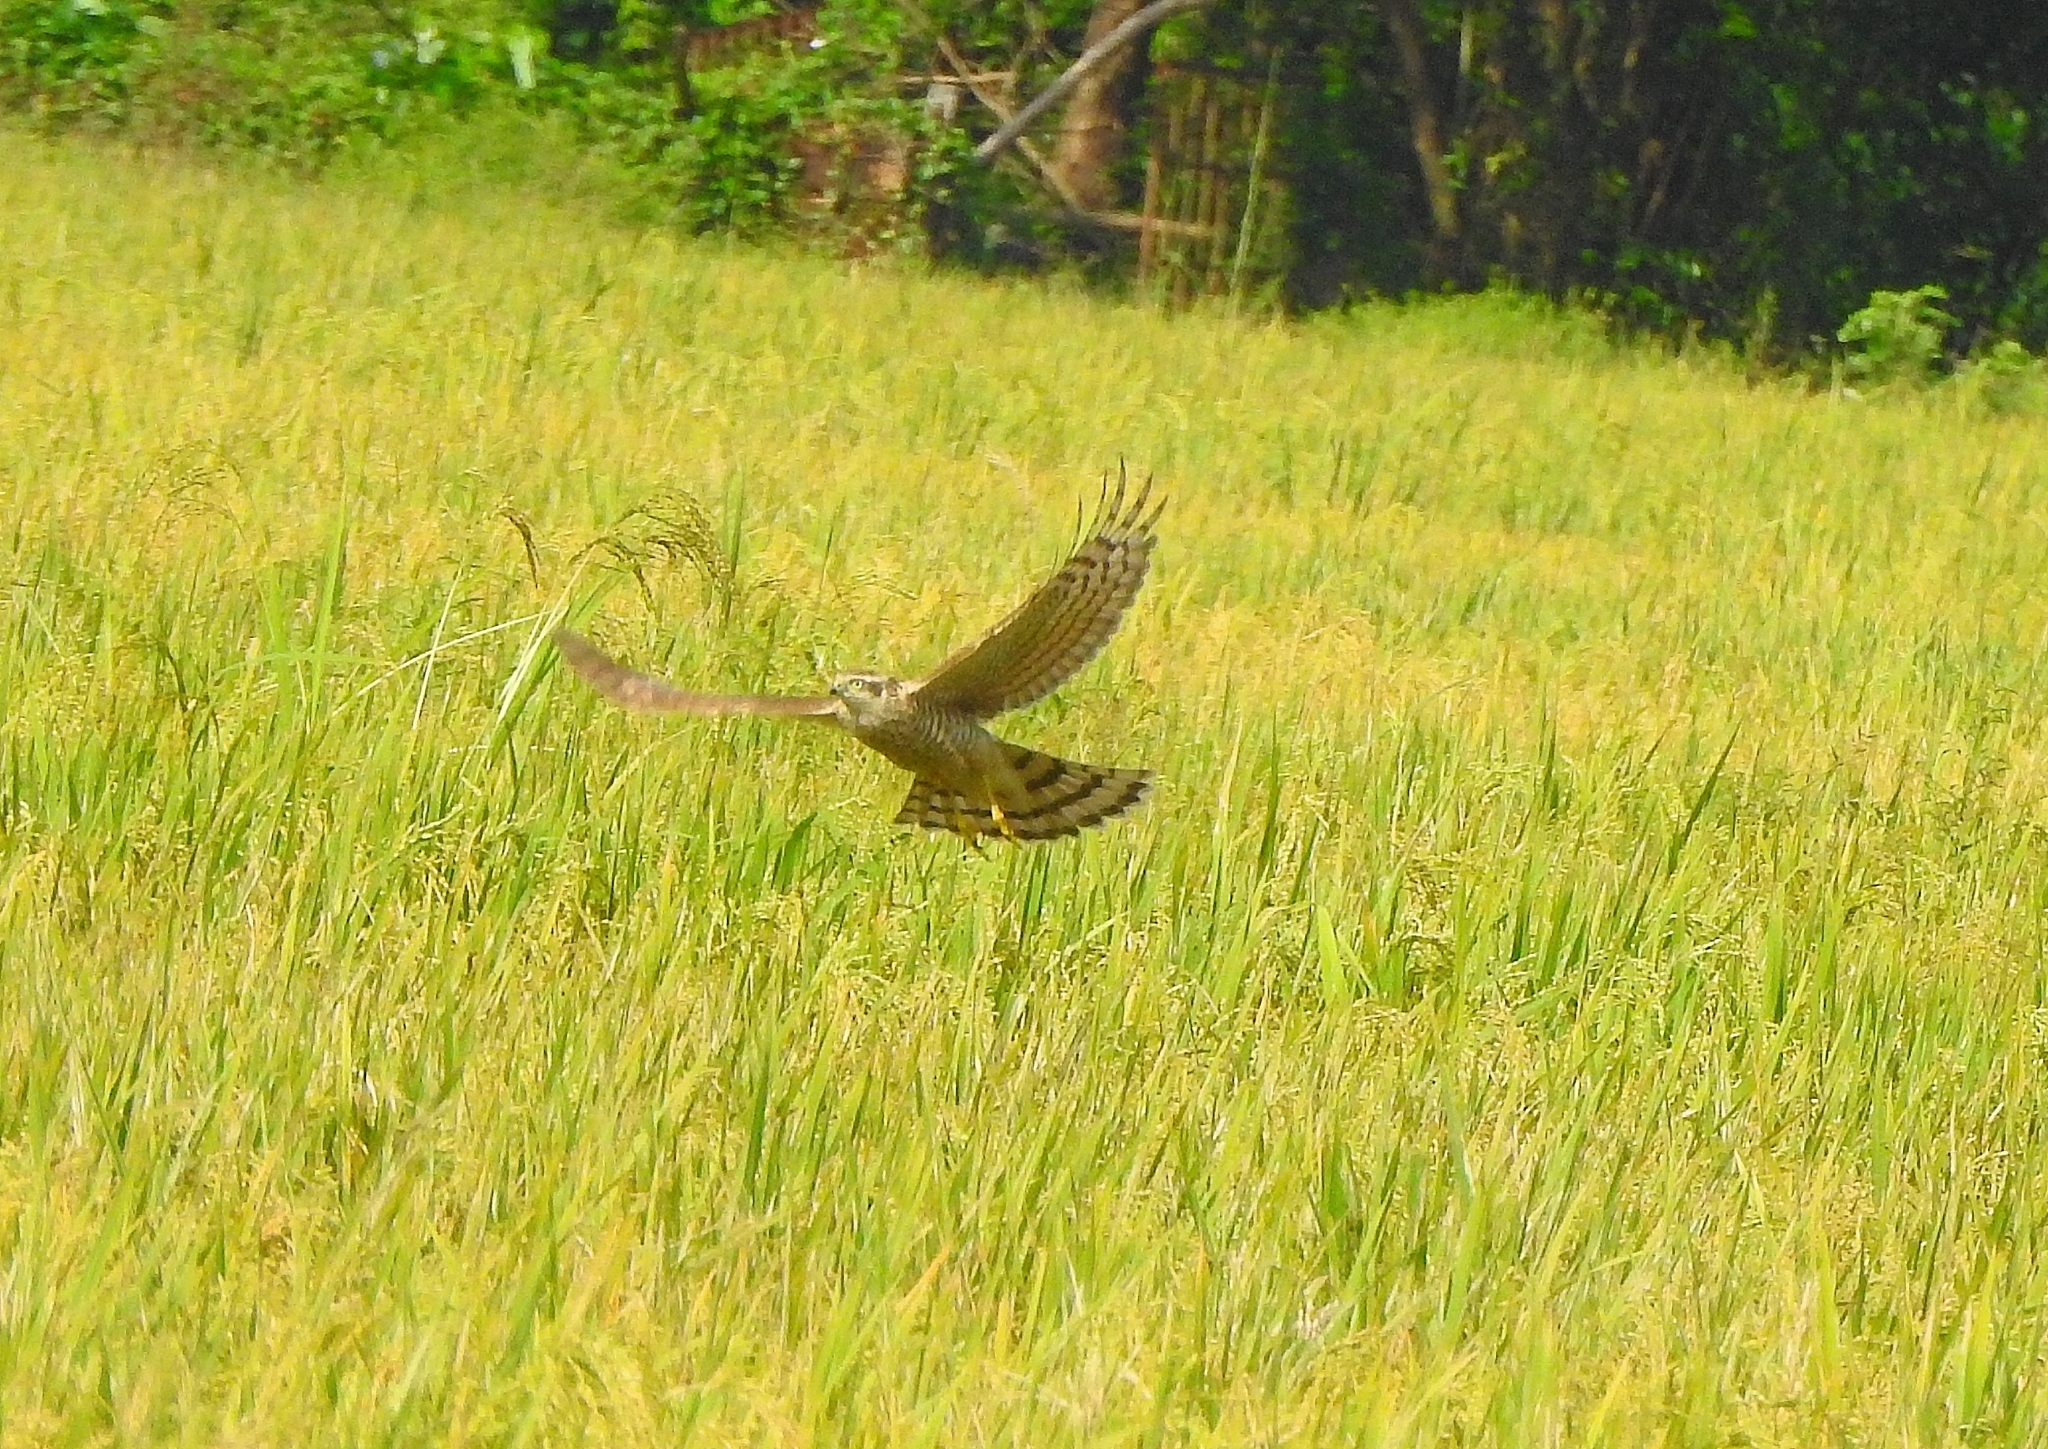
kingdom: Animalia
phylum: Chordata
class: Aves
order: Accipitriformes
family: Accipitridae
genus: Accipiter
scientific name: Accipiter nisus
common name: Eurasian sparrowhawk
